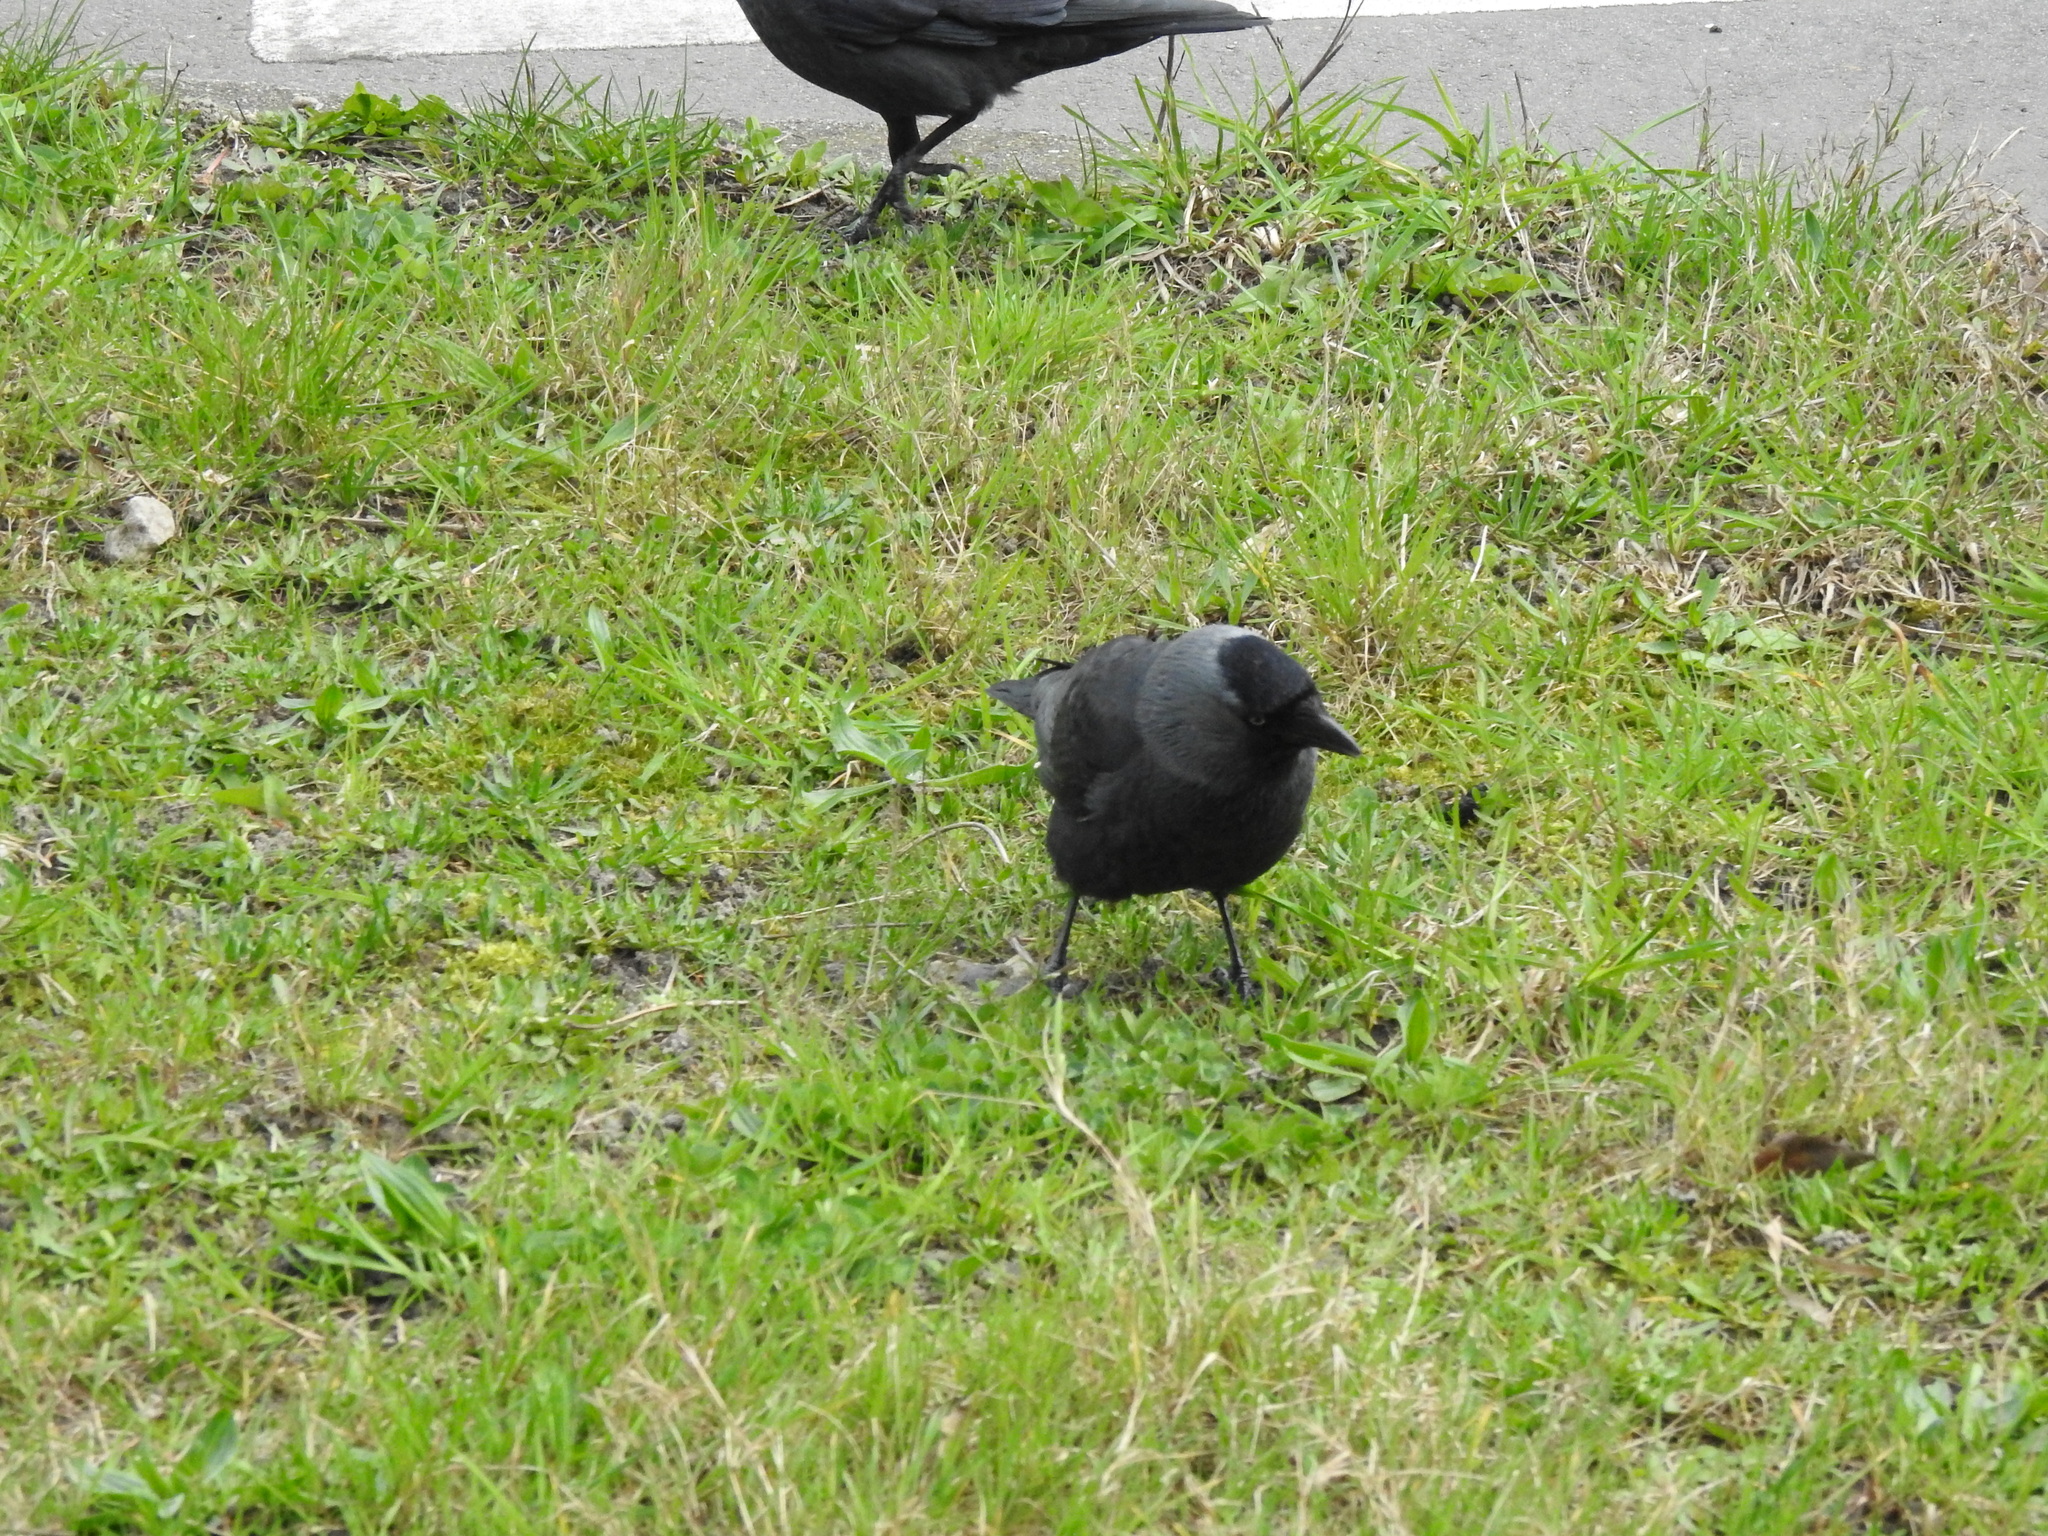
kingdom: Animalia
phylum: Chordata
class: Aves
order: Passeriformes
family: Corvidae
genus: Coloeus
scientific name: Coloeus monedula
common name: Western jackdaw
